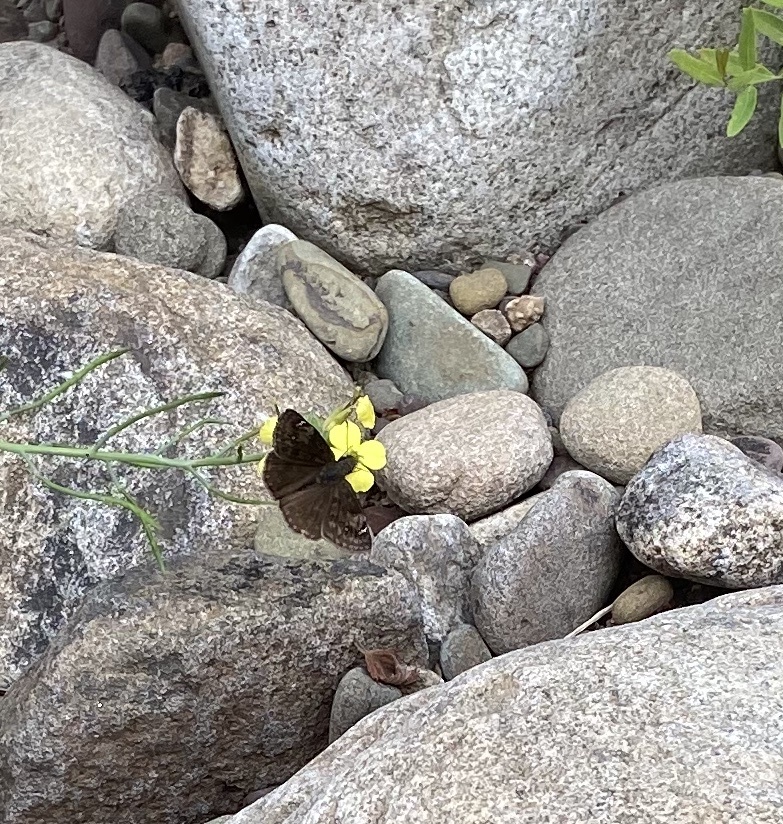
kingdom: Animalia
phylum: Arthropoda
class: Insecta
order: Lepidoptera
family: Hesperiidae
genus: Erynnis
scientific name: Erynnis baptisiae
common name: Wild indigo duskywing
